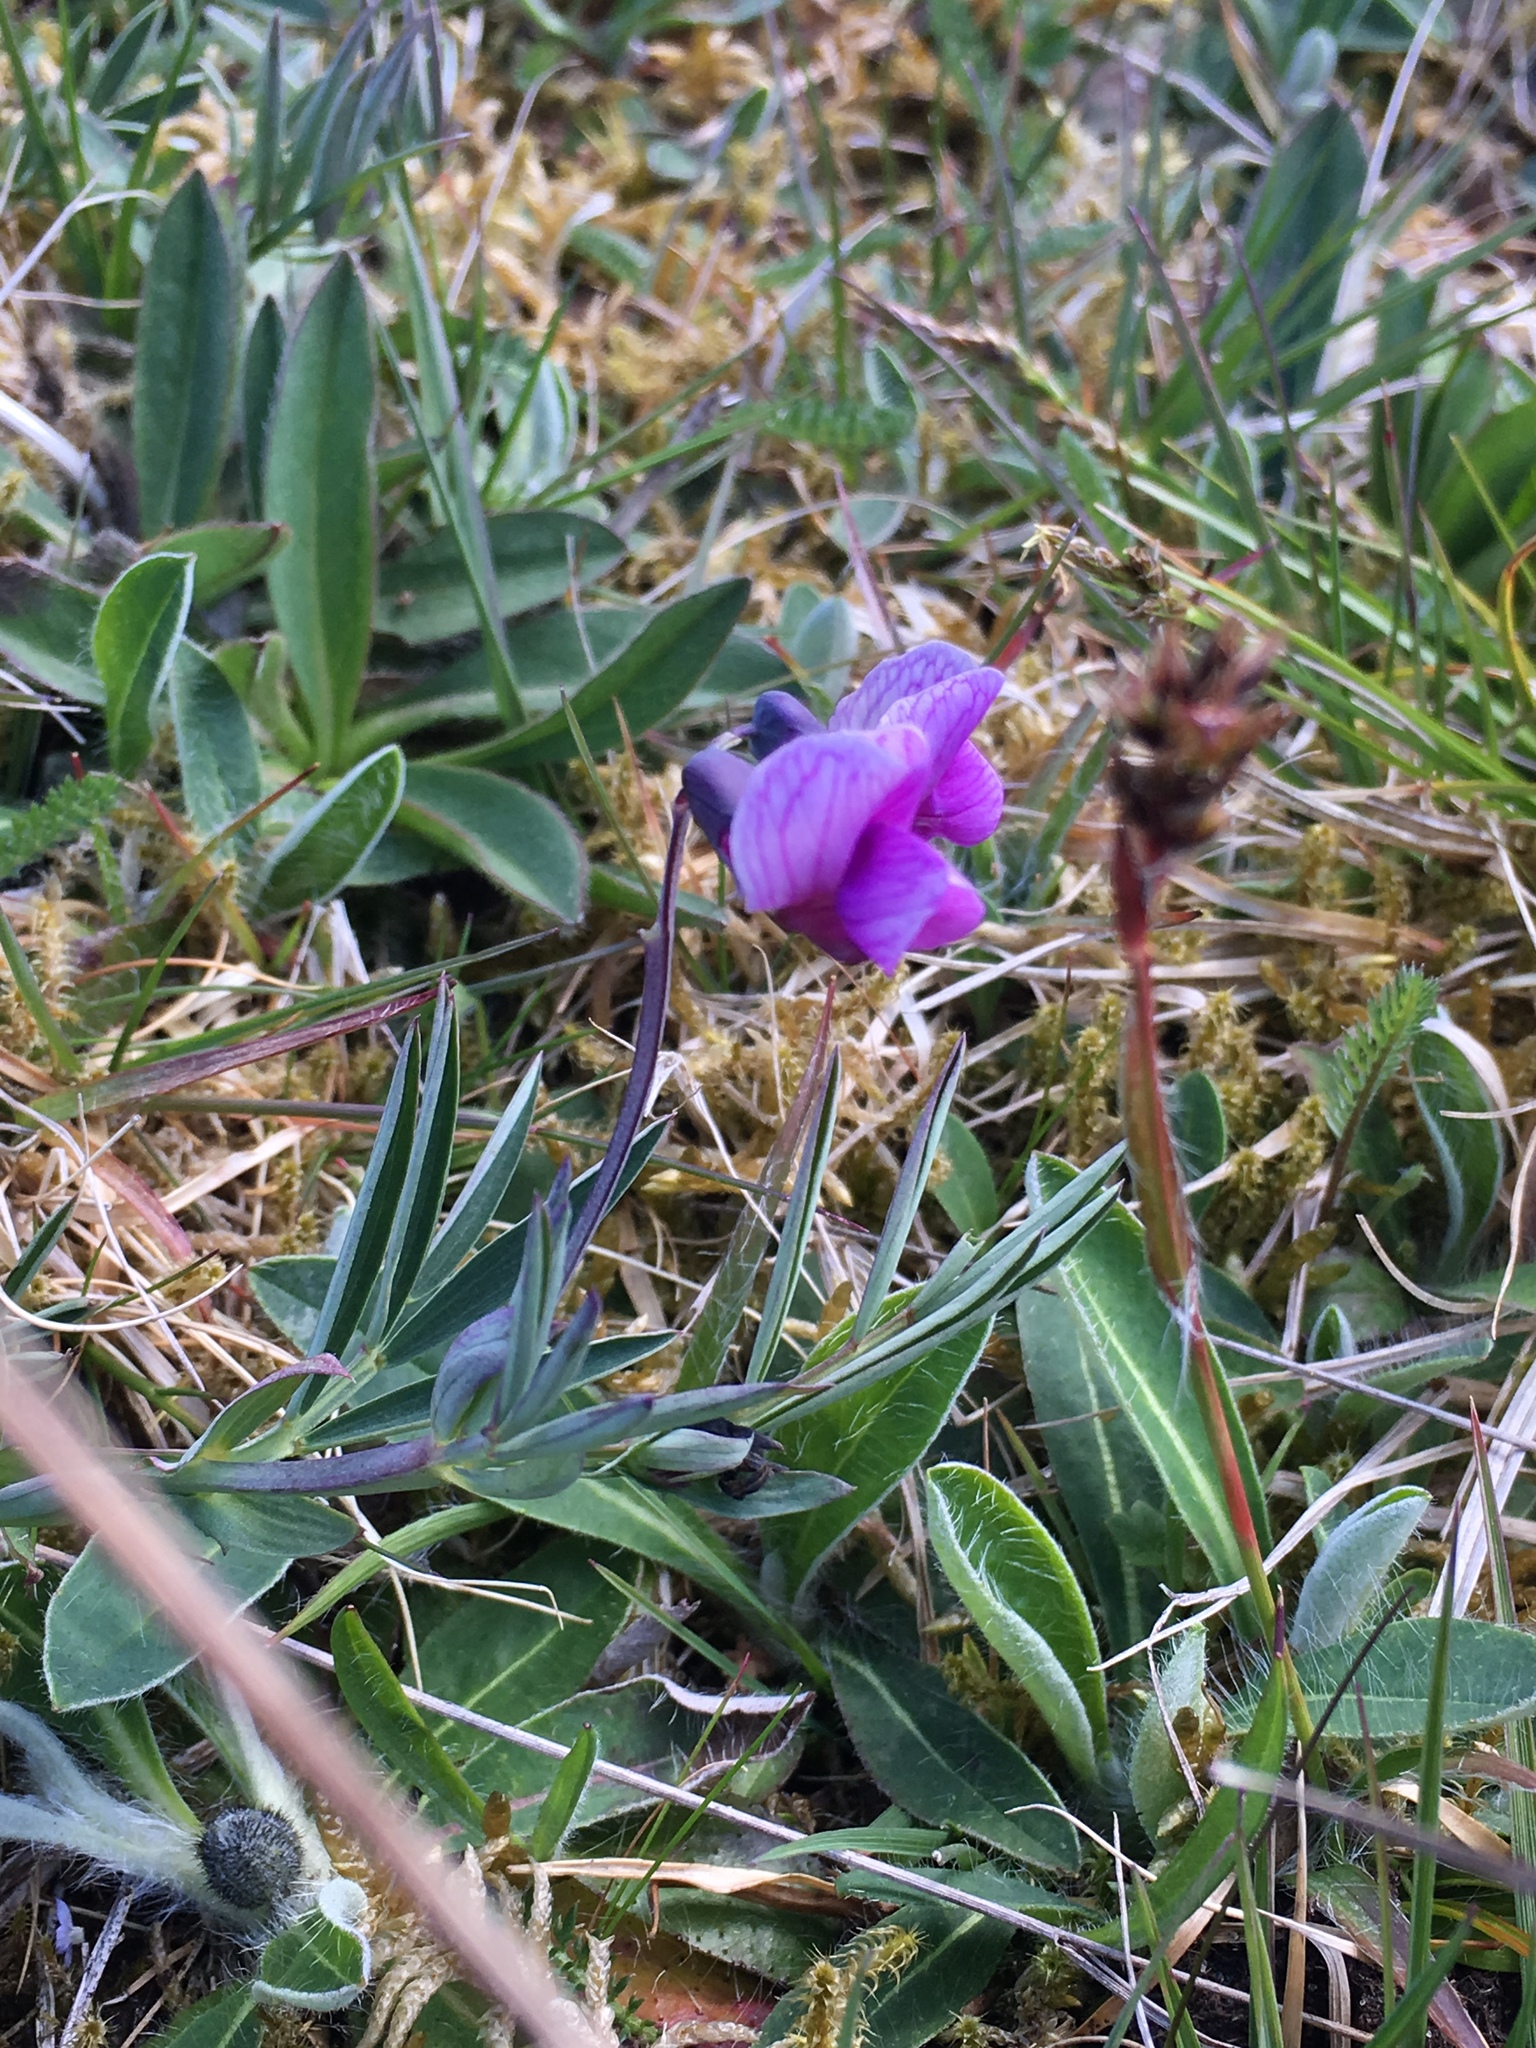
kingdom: Plantae
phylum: Tracheophyta
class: Magnoliopsida
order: Fabales
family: Fabaceae
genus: Lathyrus
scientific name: Lathyrus linifolius
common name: Bitter-vetch
